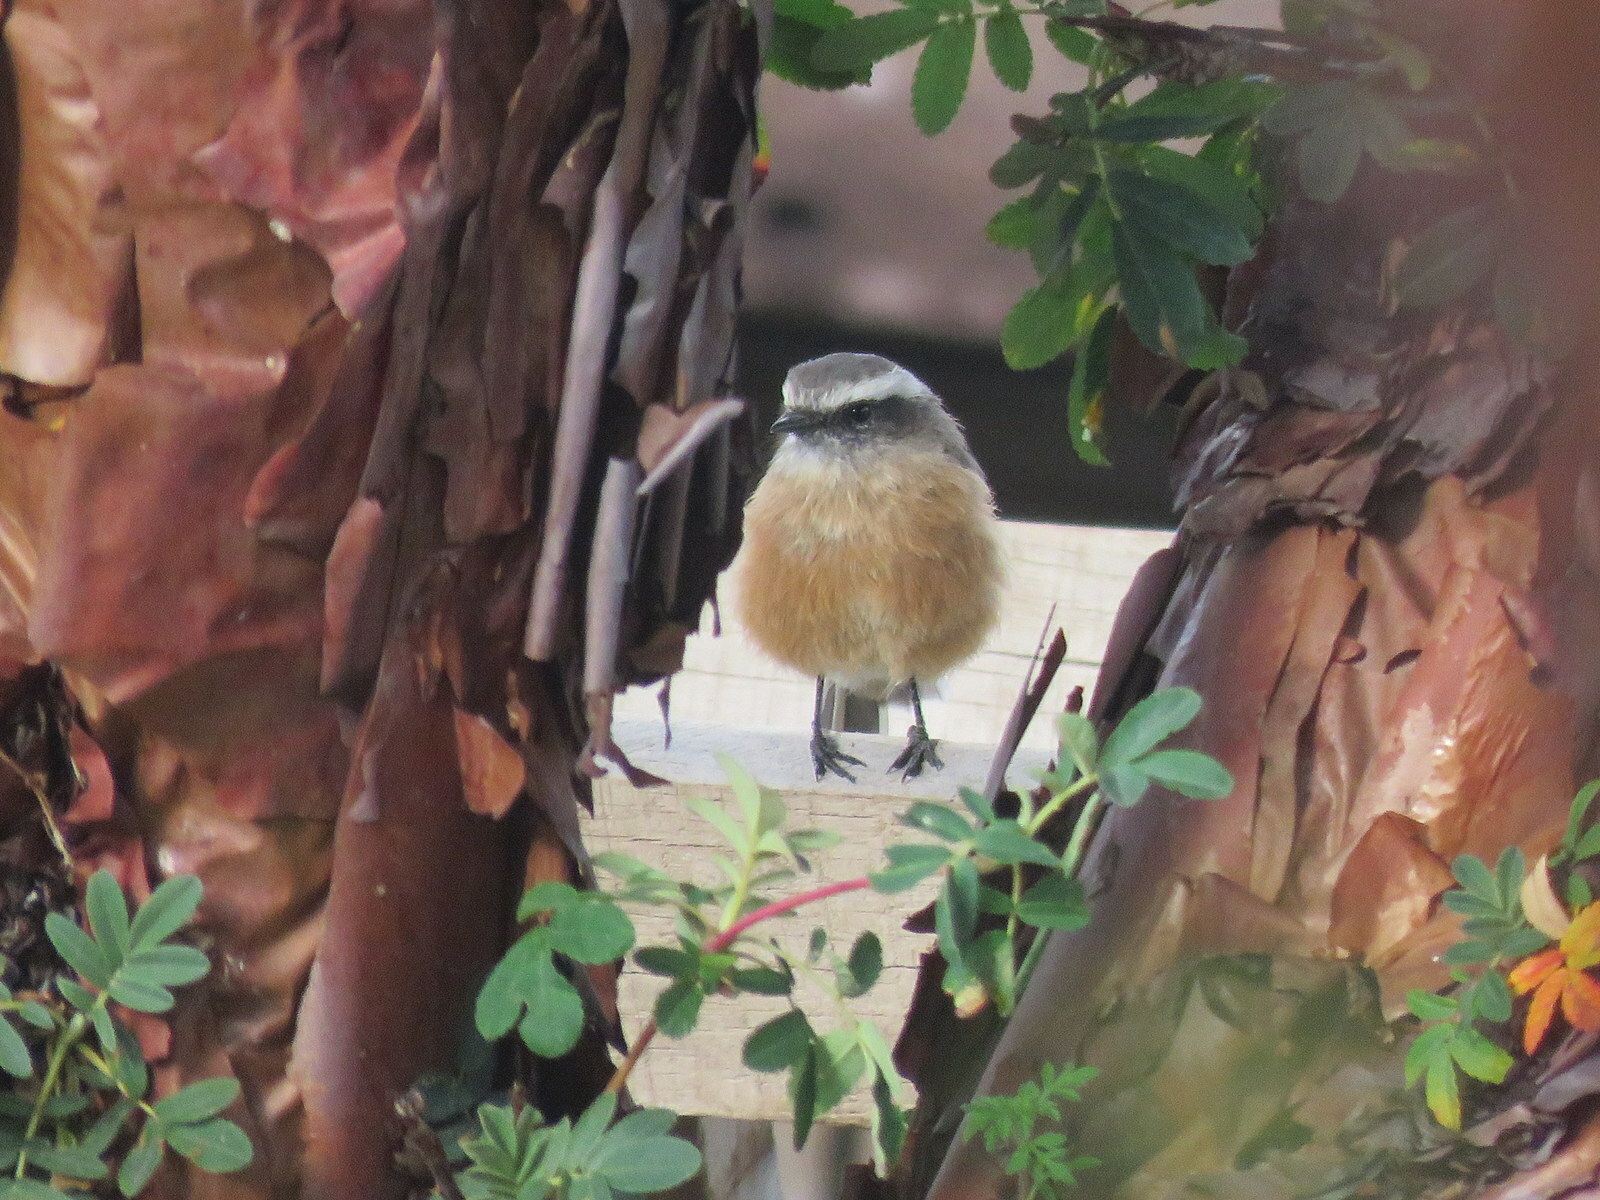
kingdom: Animalia
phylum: Chordata
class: Aves
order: Passeriformes
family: Tyrannidae
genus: Ochthoeca
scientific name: Ochthoeca oenanthoides
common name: D'orbigny's chat-tyrant
